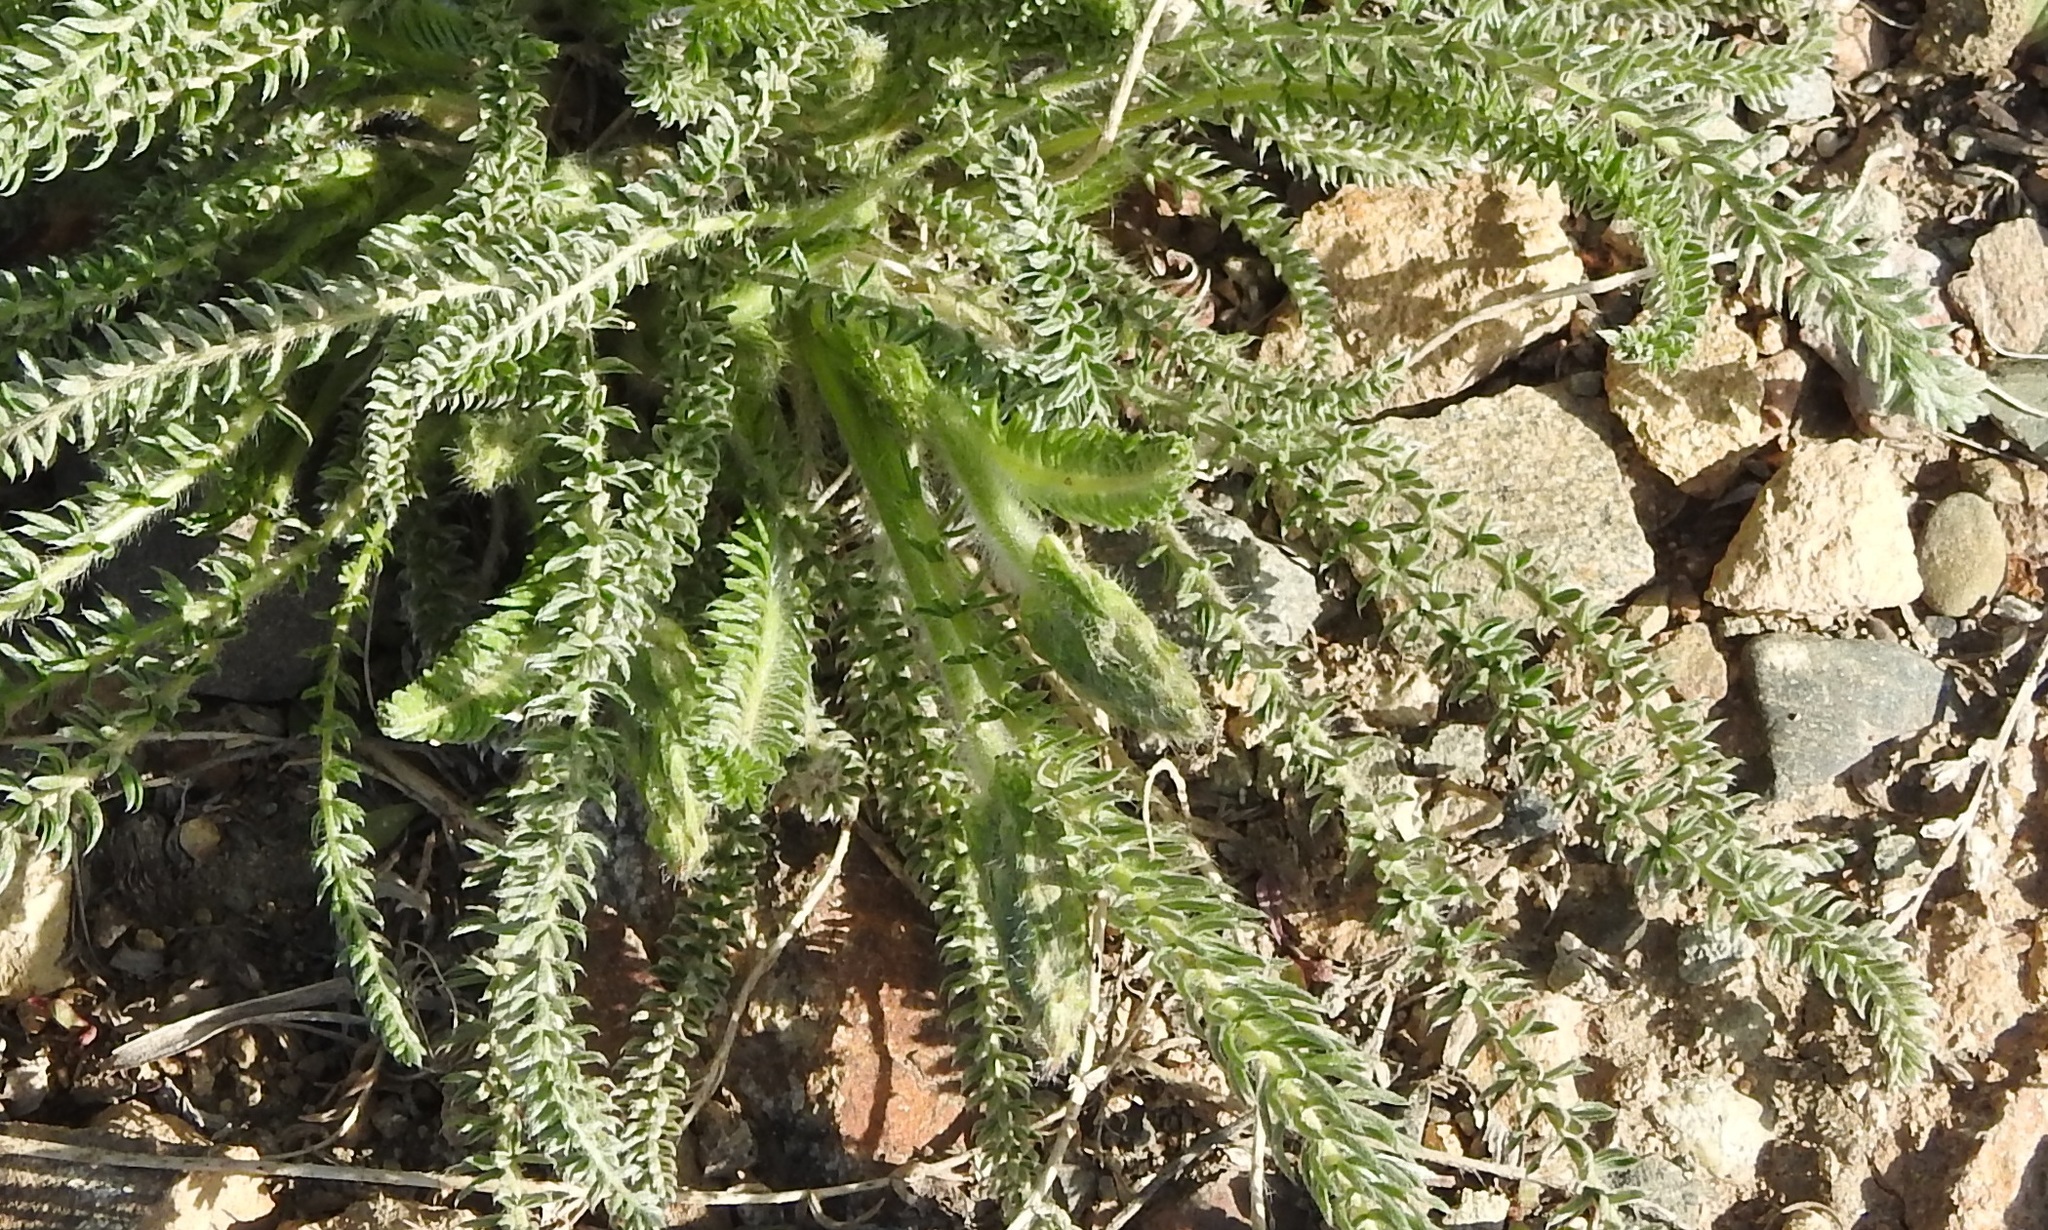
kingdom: Plantae
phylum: Tracheophyta
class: Magnoliopsida
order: Asterales
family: Asteraceae
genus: Achillea
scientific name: Achillea millefolium
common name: Yarrow
